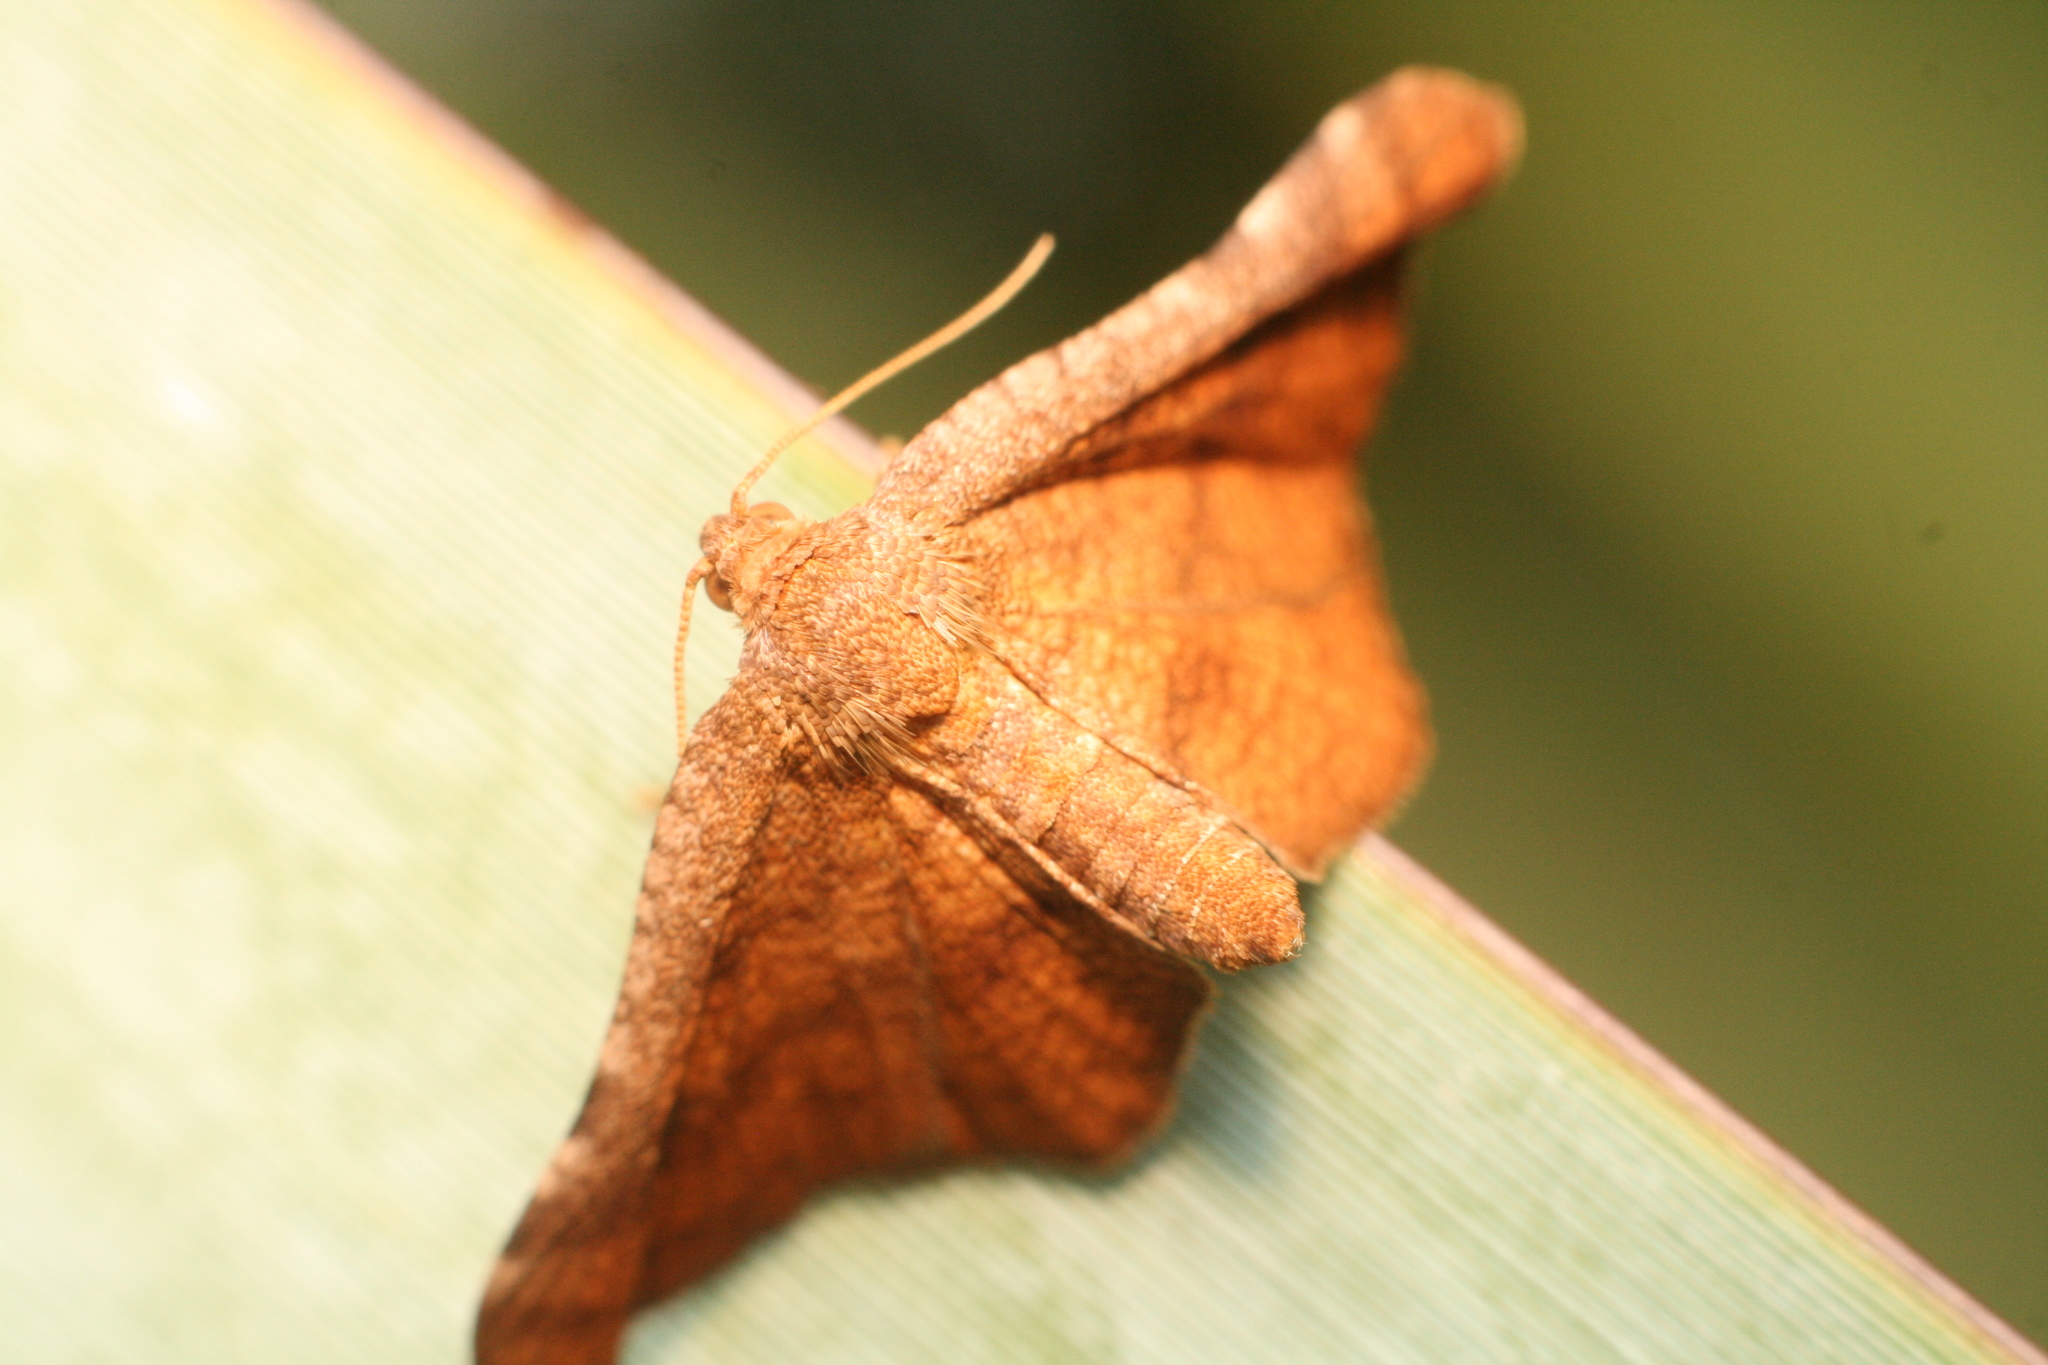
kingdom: Animalia
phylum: Arthropoda
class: Insecta
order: Lepidoptera
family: Thyrididae
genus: Morova
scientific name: Morova subfasciata
